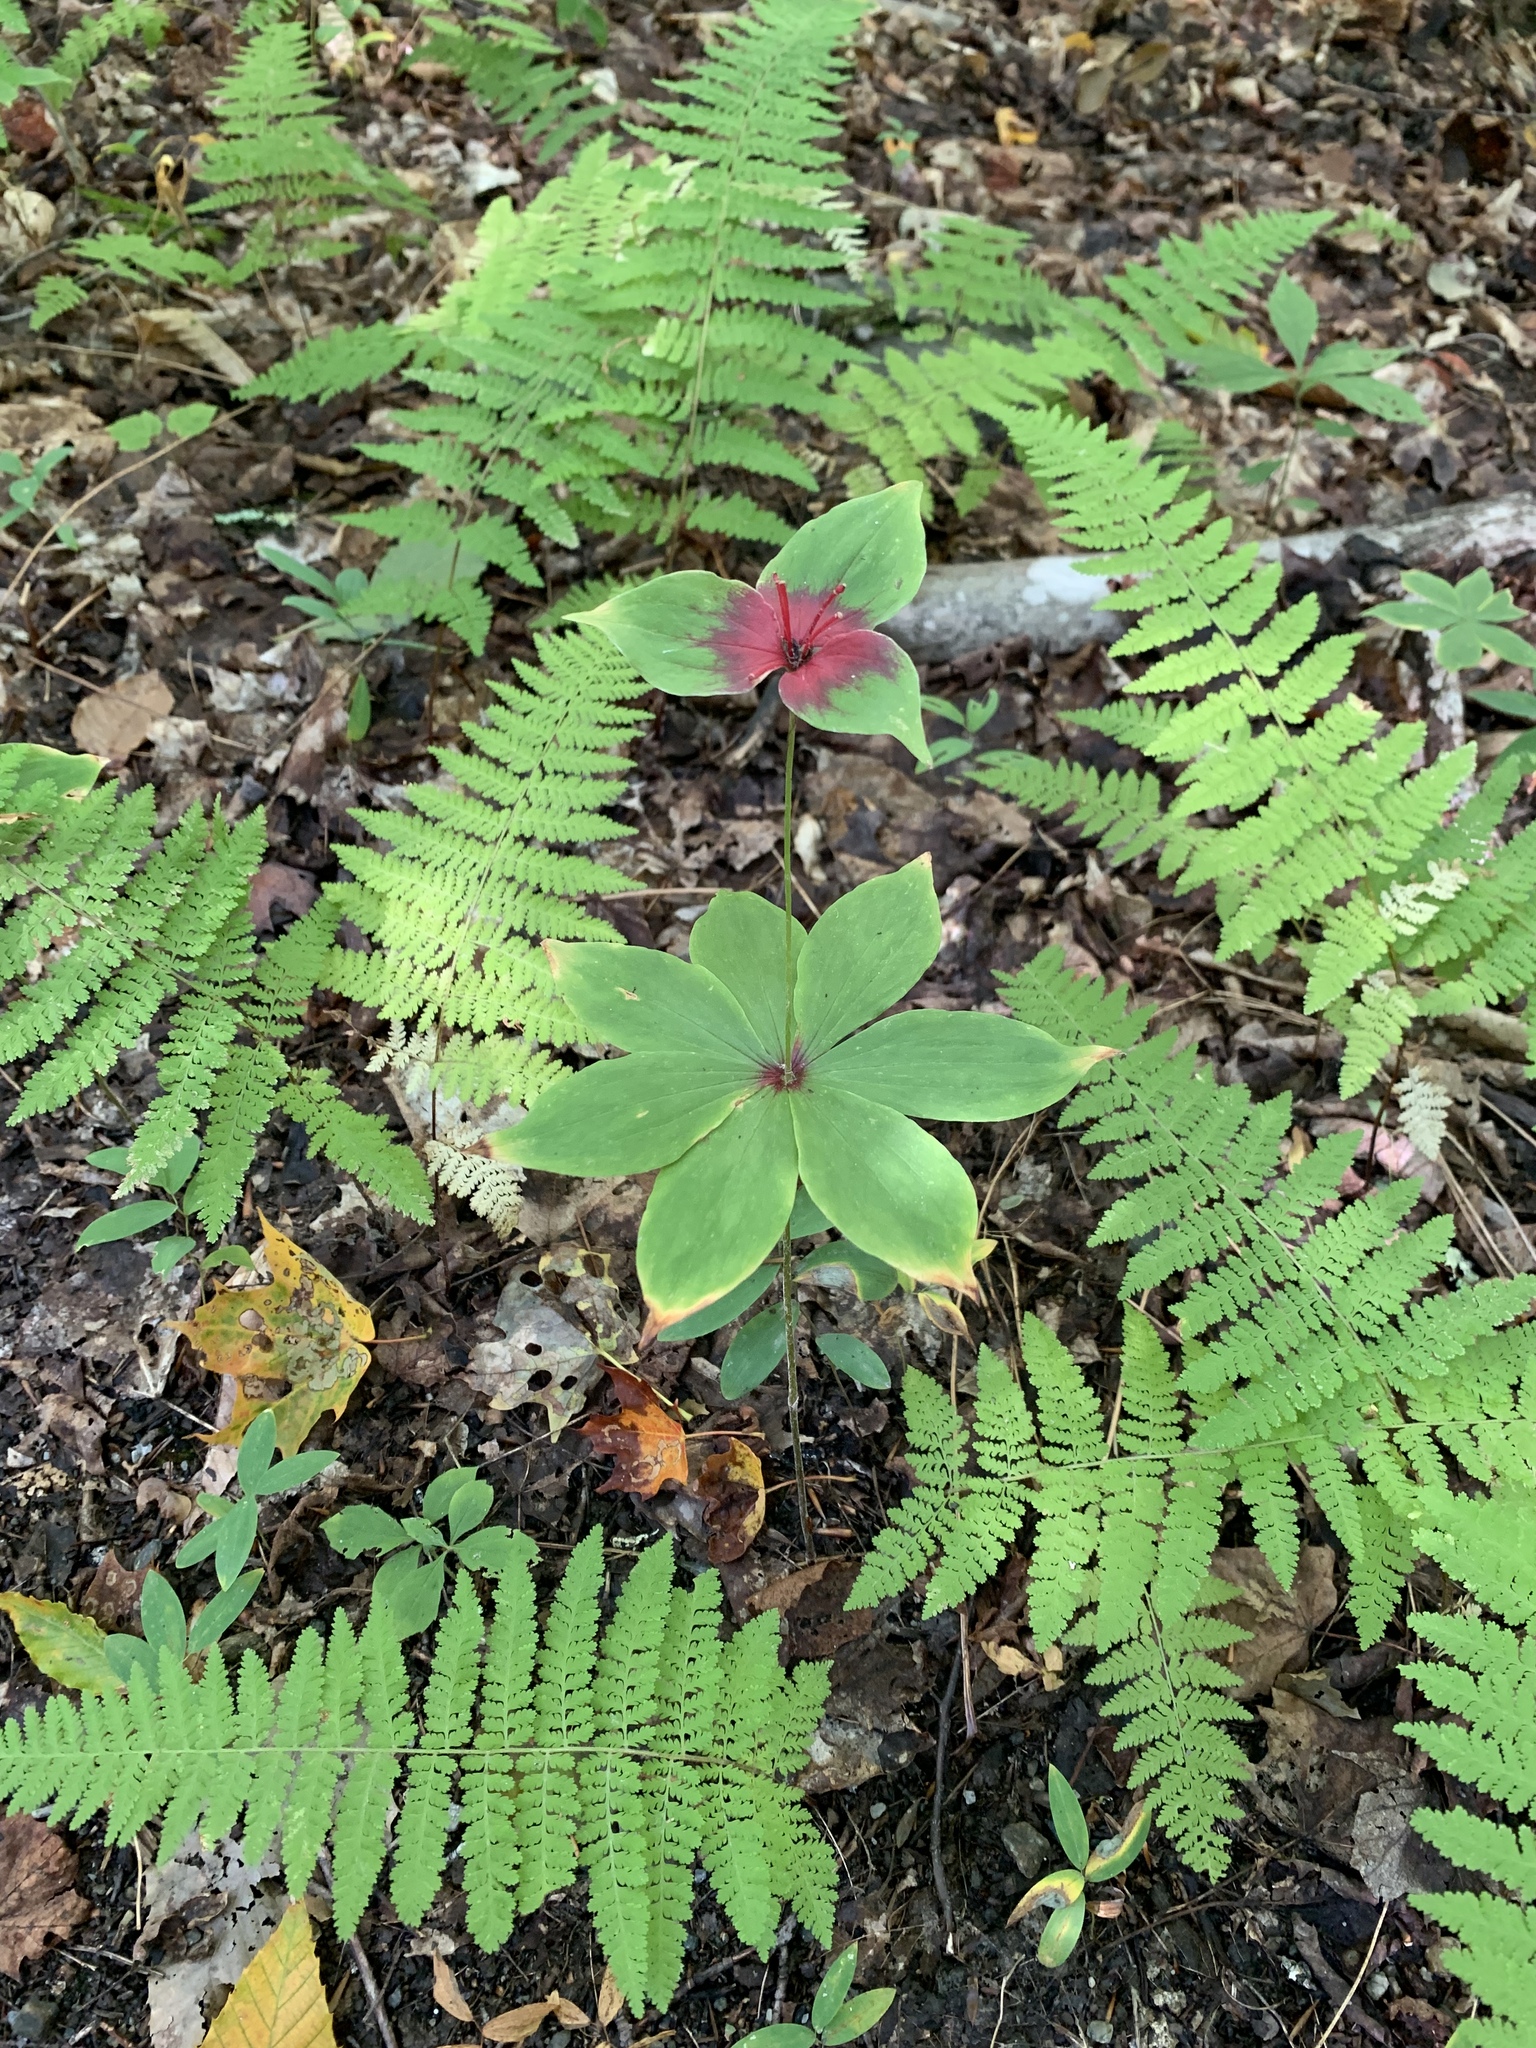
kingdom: Plantae
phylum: Tracheophyta
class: Liliopsida
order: Liliales
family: Liliaceae
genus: Medeola
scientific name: Medeola virginiana
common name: Indian cucumber-root
